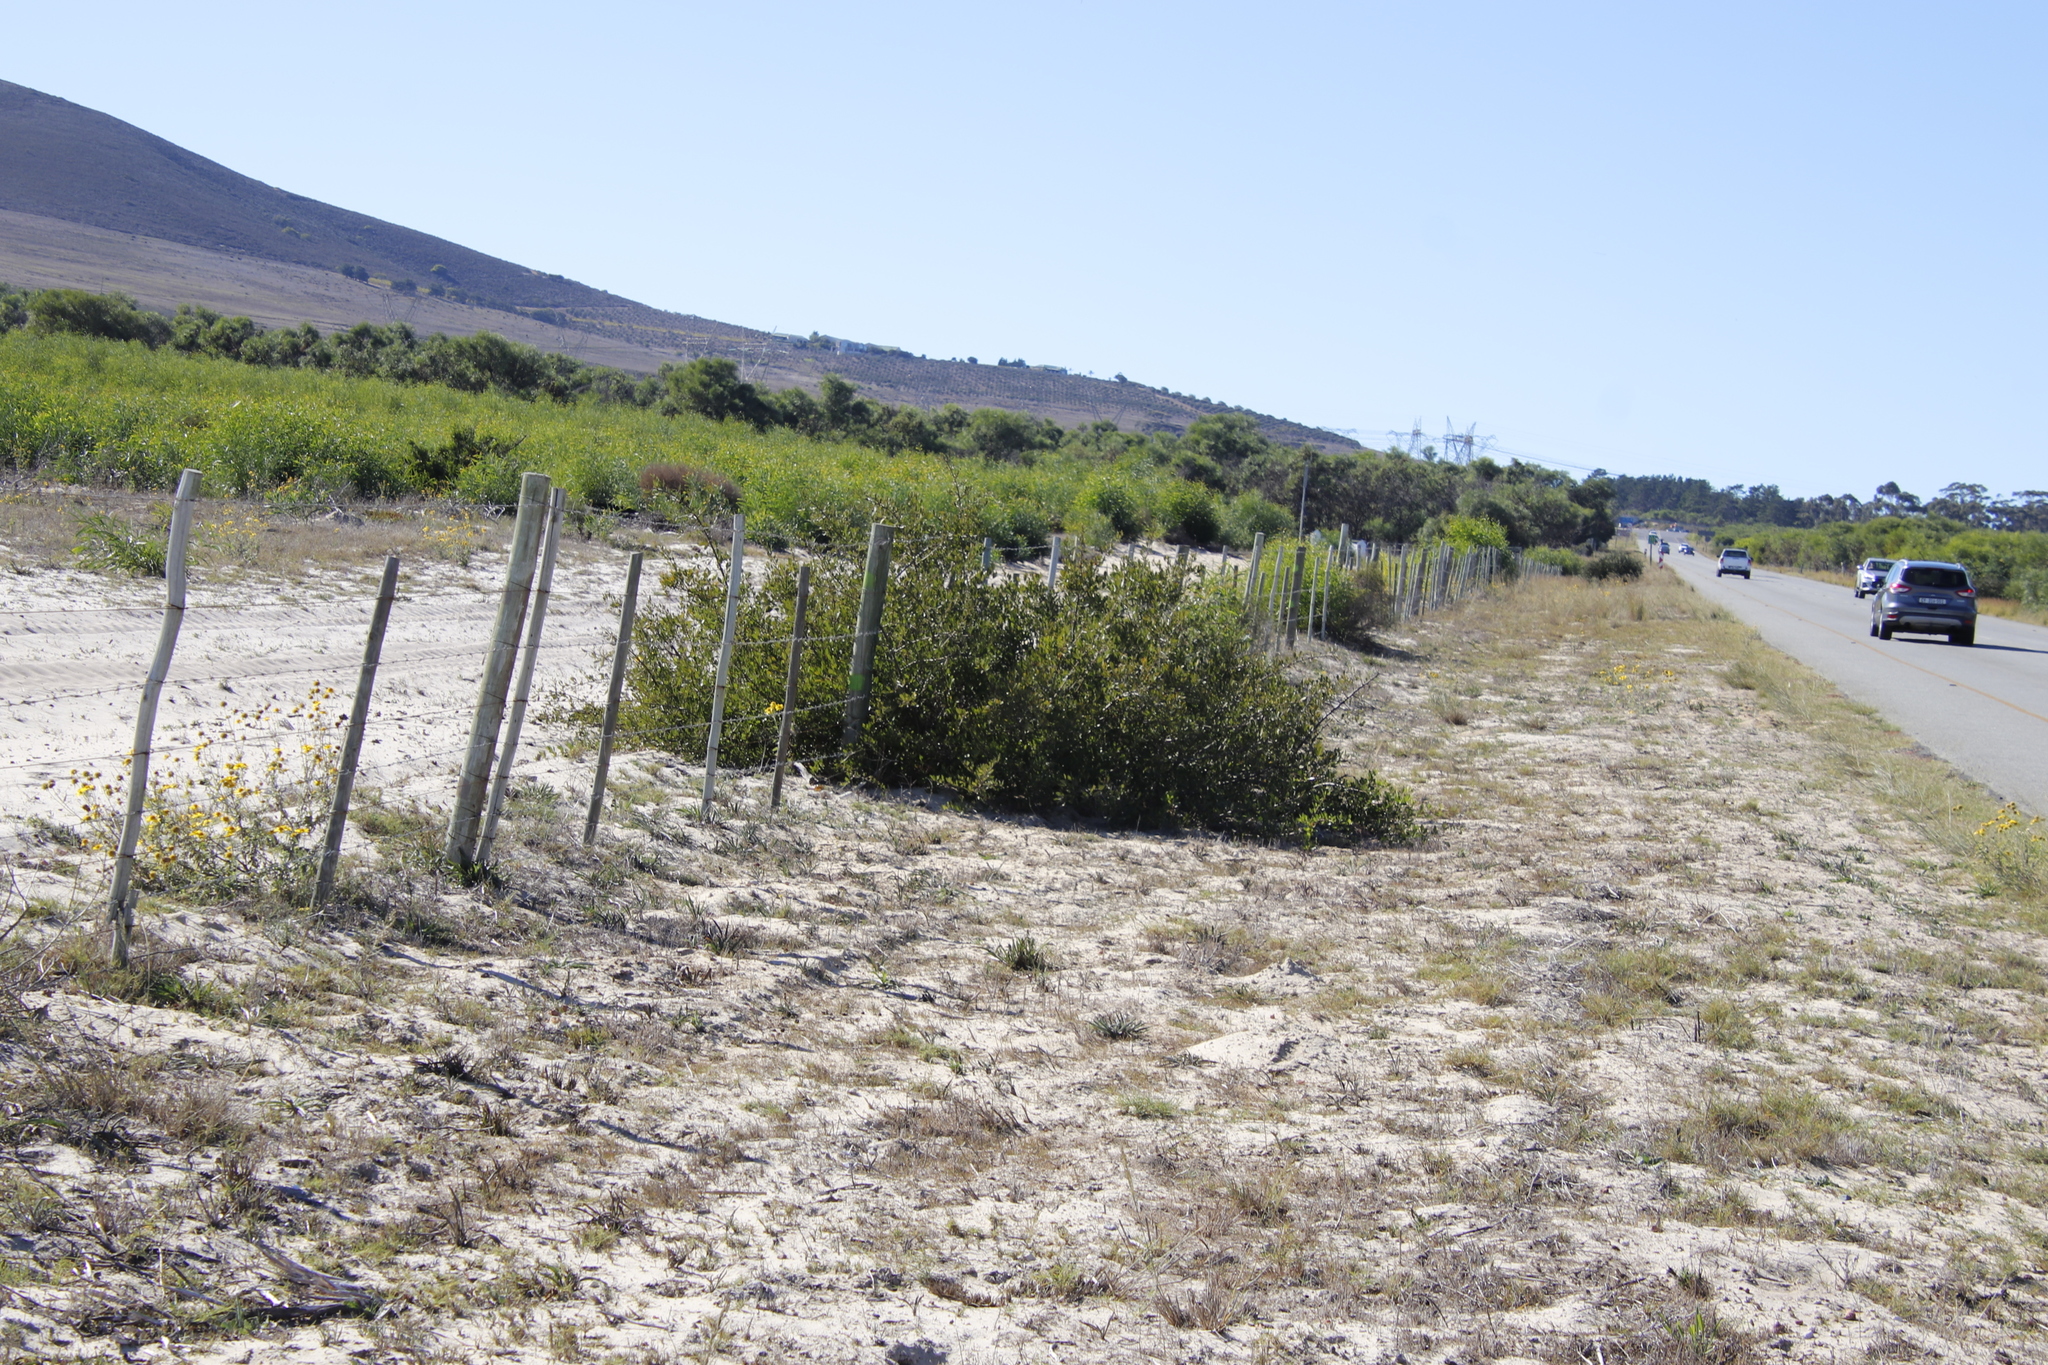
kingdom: Plantae
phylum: Tracheophyta
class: Magnoliopsida
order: Sapindales
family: Anacardiaceae
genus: Searsia
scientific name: Searsia laevigata
